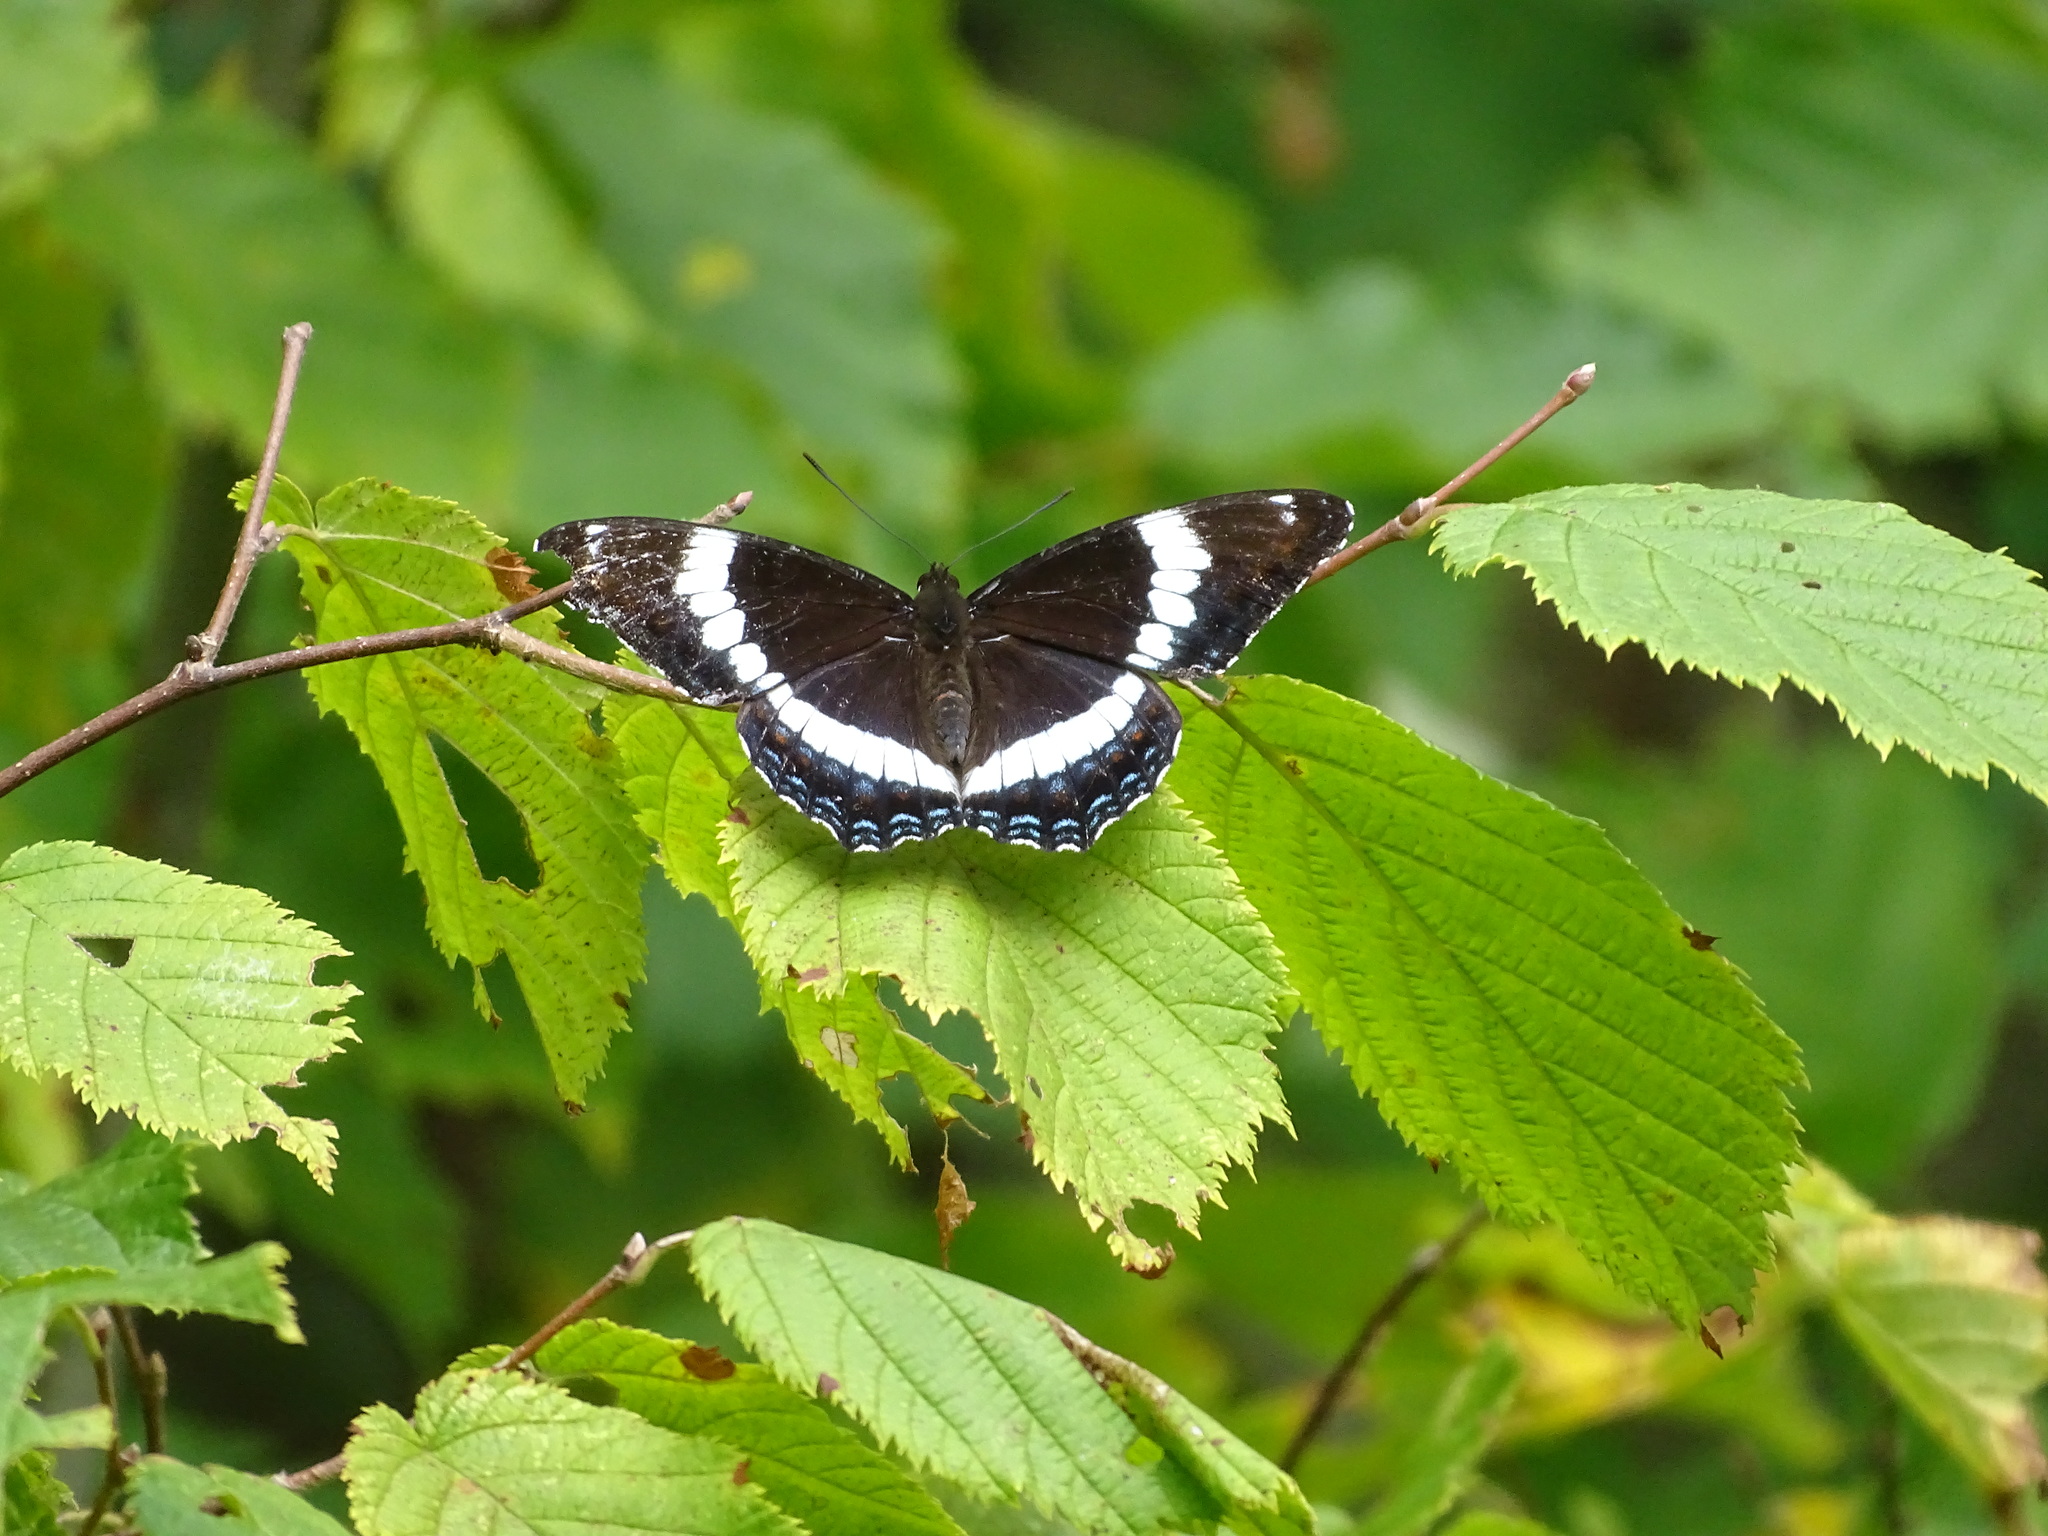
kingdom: Animalia
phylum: Arthropoda
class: Insecta
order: Lepidoptera
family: Nymphalidae
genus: Limenitis
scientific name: Limenitis arthemis
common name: Red-spotted admiral
